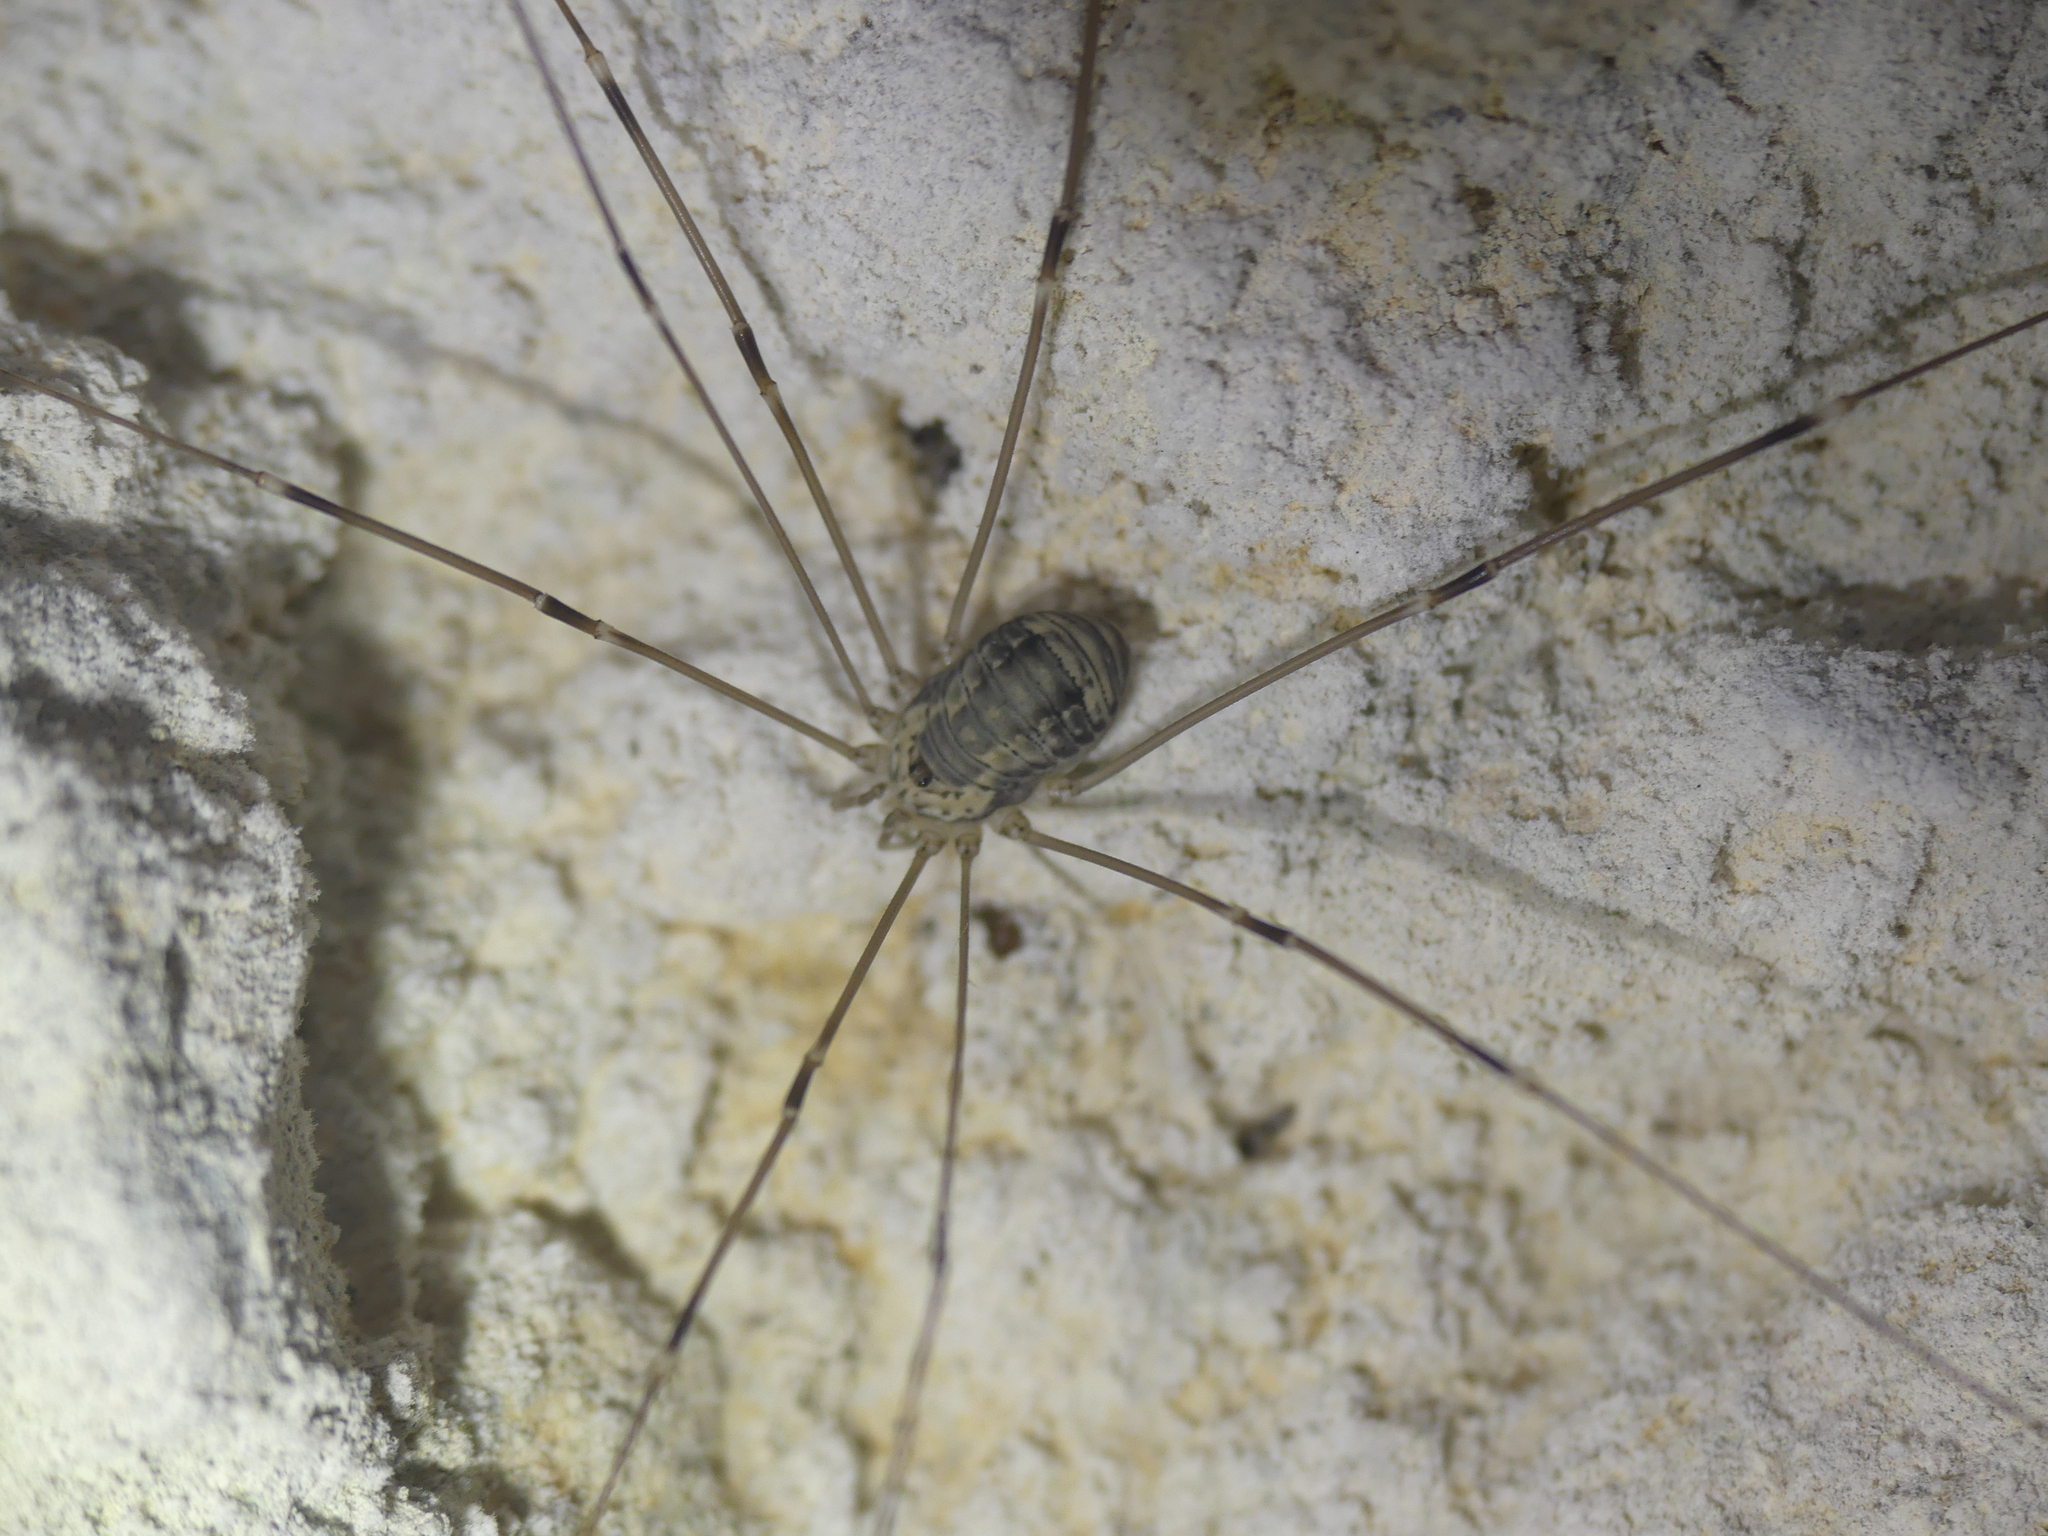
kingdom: Animalia
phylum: Arthropoda
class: Arachnida
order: Opiliones
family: Sclerosomatidae
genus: Leiobunum
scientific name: Leiobunum limbatum
